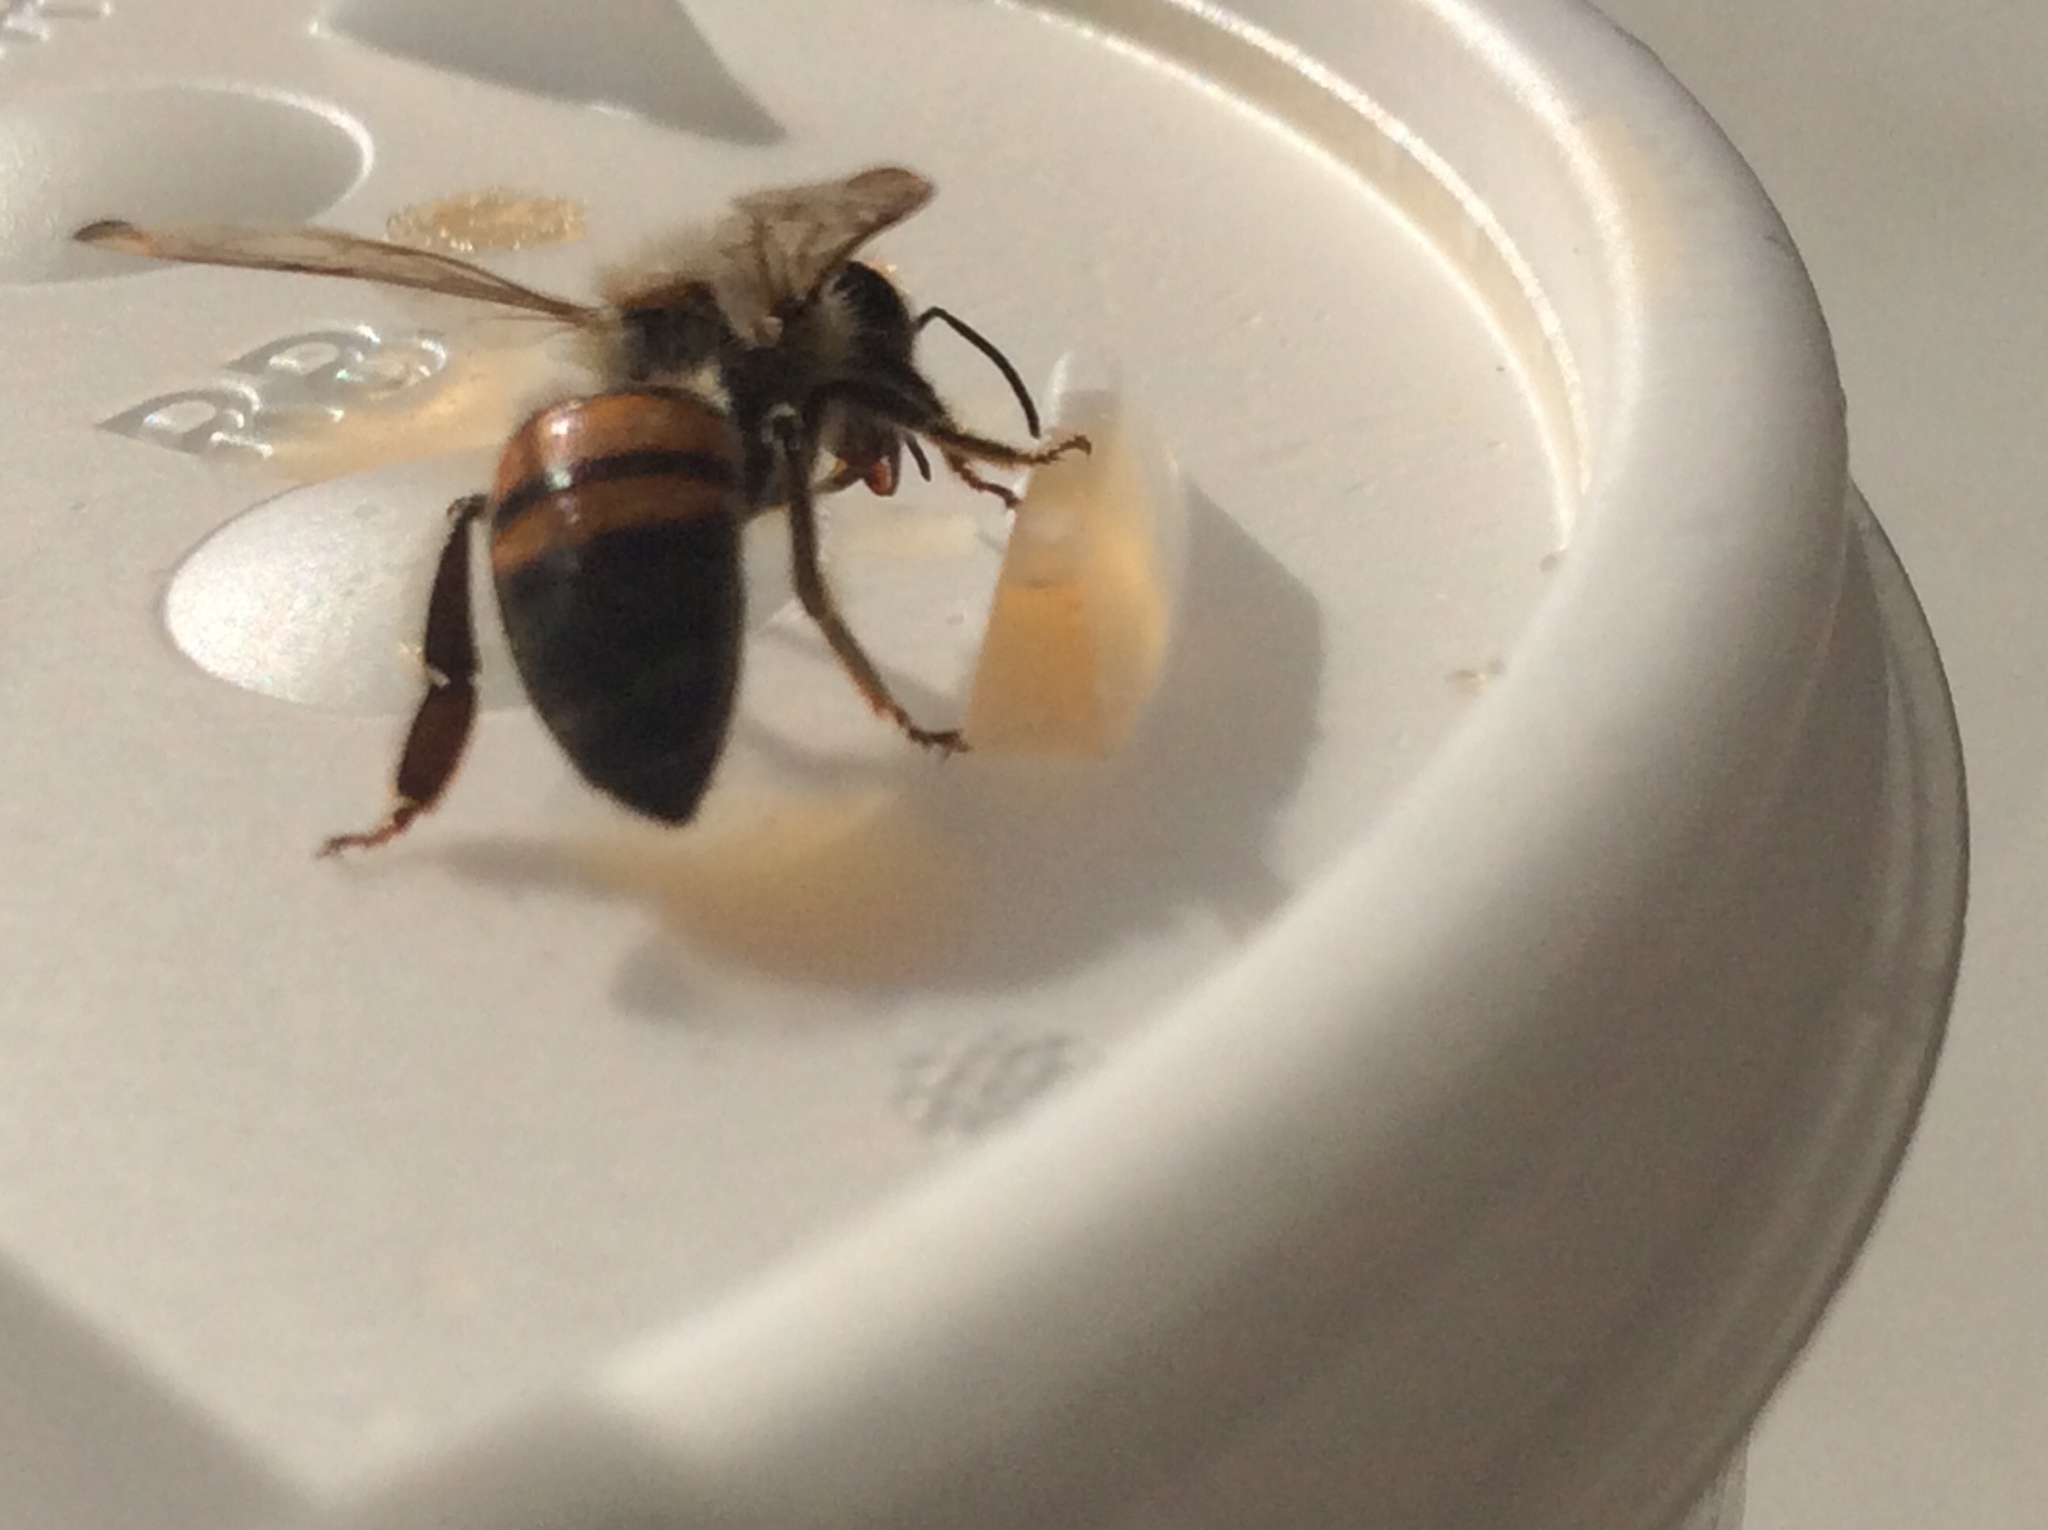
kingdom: Animalia
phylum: Arthropoda
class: Insecta
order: Hymenoptera
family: Apidae
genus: Apis
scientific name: Apis mellifera
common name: Honey bee
